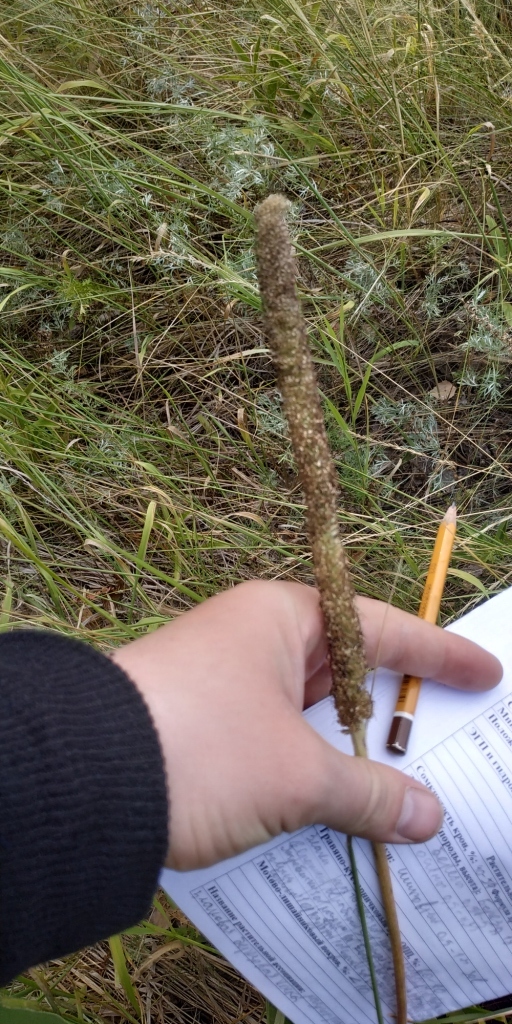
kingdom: Plantae
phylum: Tracheophyta
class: Magnoliopsida
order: Lamiales
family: Plantaginaceae
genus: Plantago
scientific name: Plantago maxima
